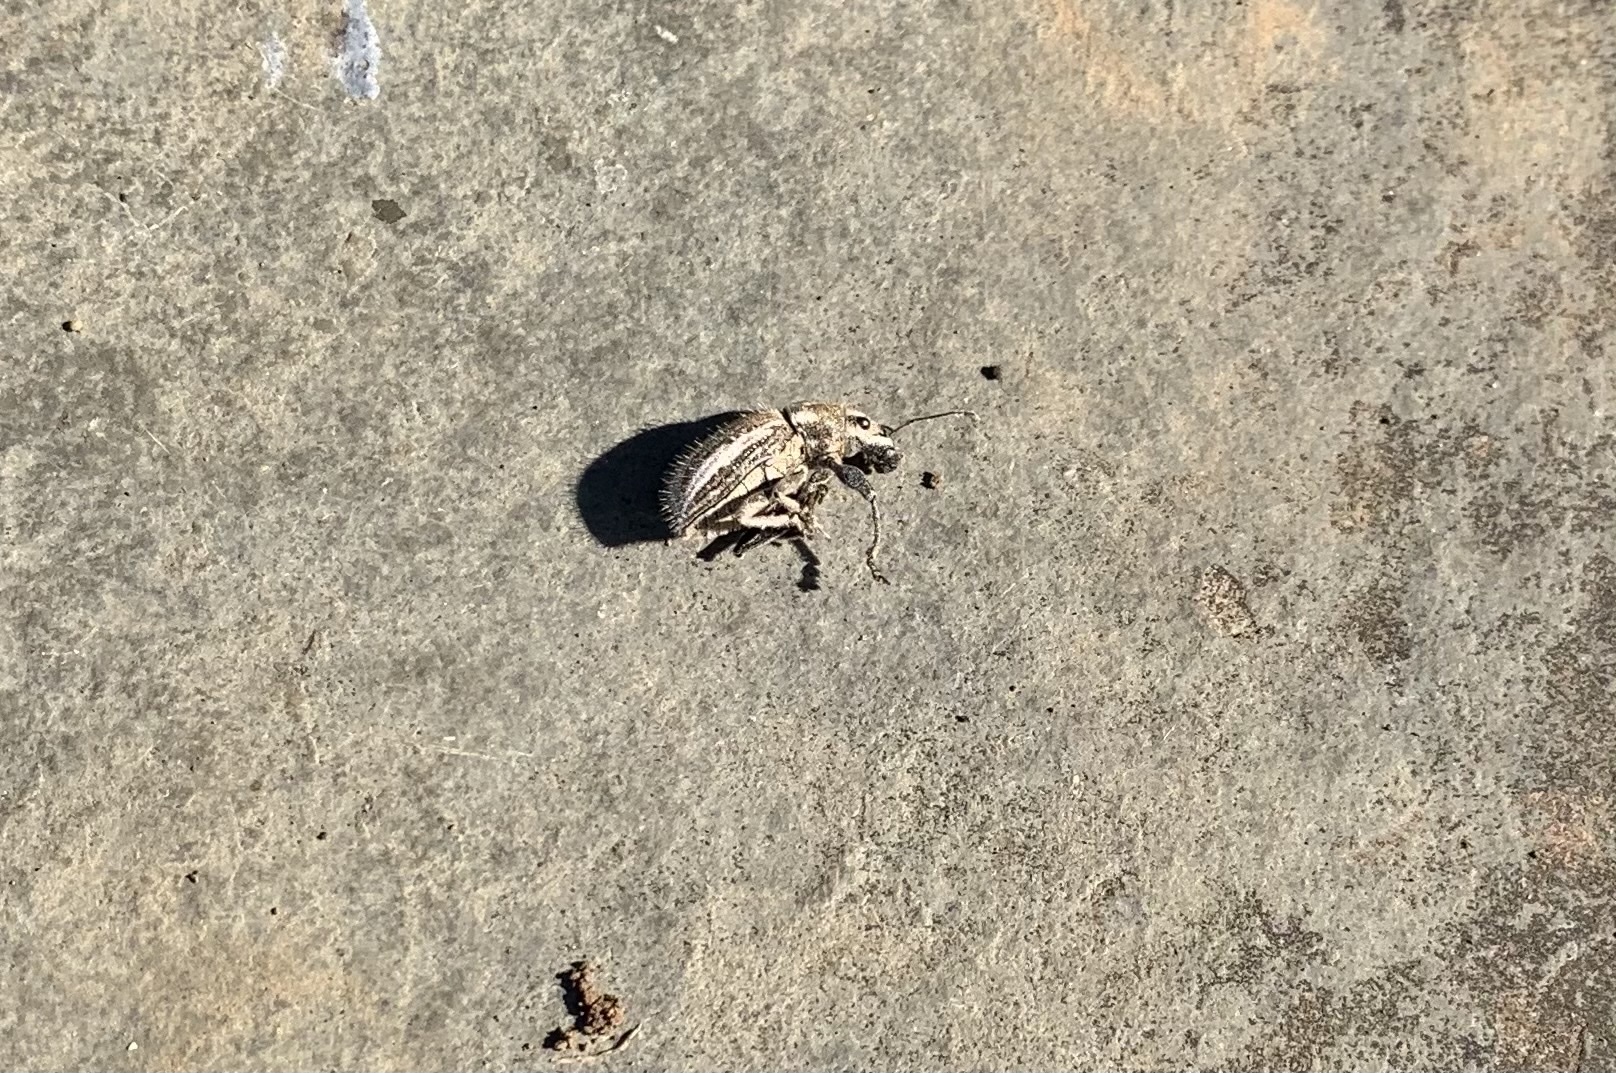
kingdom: Animalia
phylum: Arthropoda
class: Insecta
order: Coleoptera
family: Curculionidae
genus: Naupactus
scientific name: Naupactus leucoloma
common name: Whitefringed beetle
